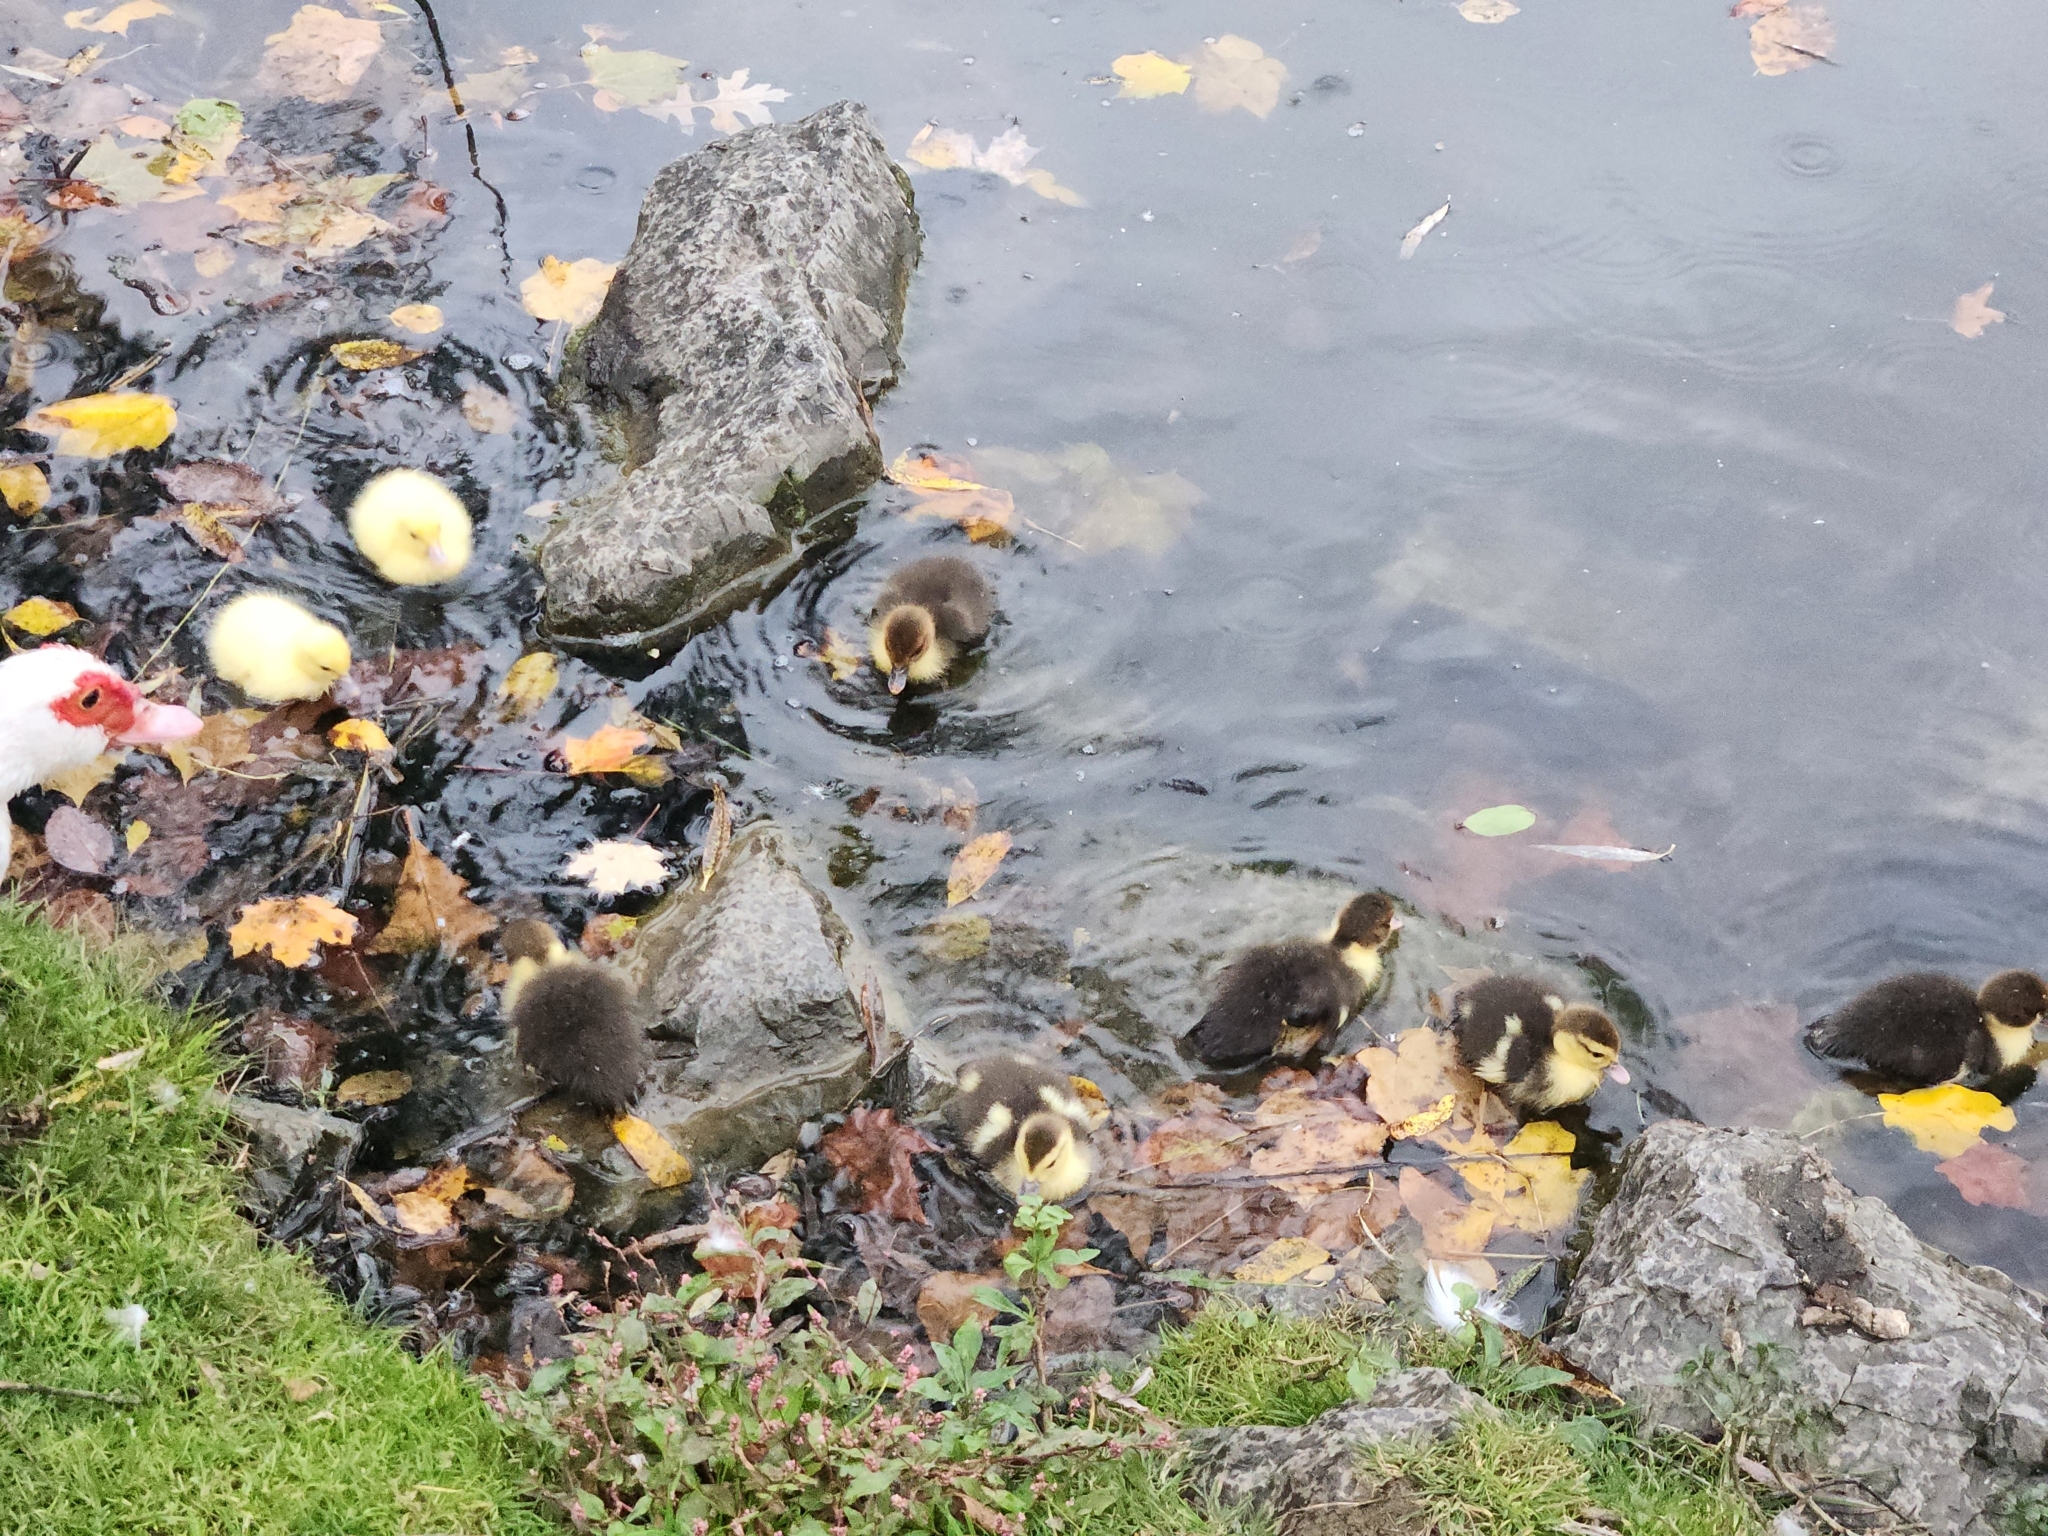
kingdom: Animalia
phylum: Chordata
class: Aves
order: Anseriformes
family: Anatidae
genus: Cairina
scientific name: Cairina moschata
